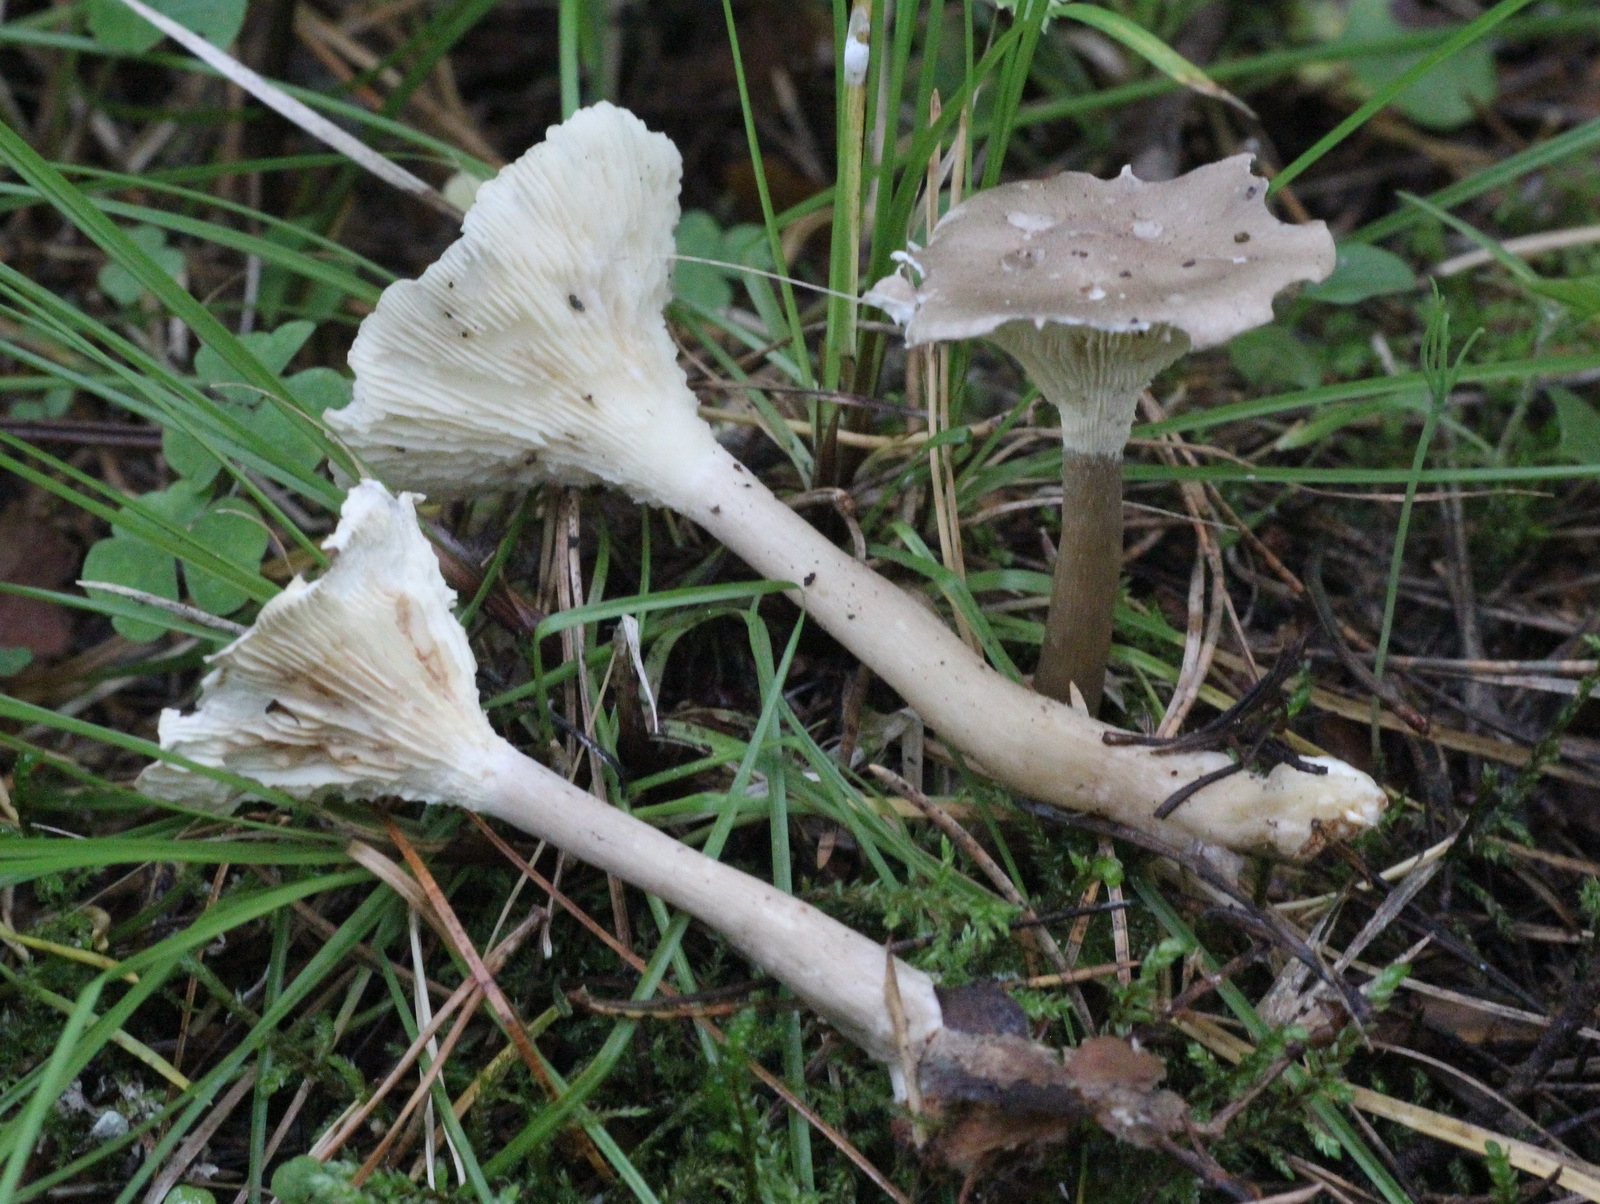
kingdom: Fungi
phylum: Basidiomycota
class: Agaricomycetes
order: Agaricales
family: Hygrophoraceae
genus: Ampulloclitocybe
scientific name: Ampulloclitocybe clavipes
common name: Club foot
